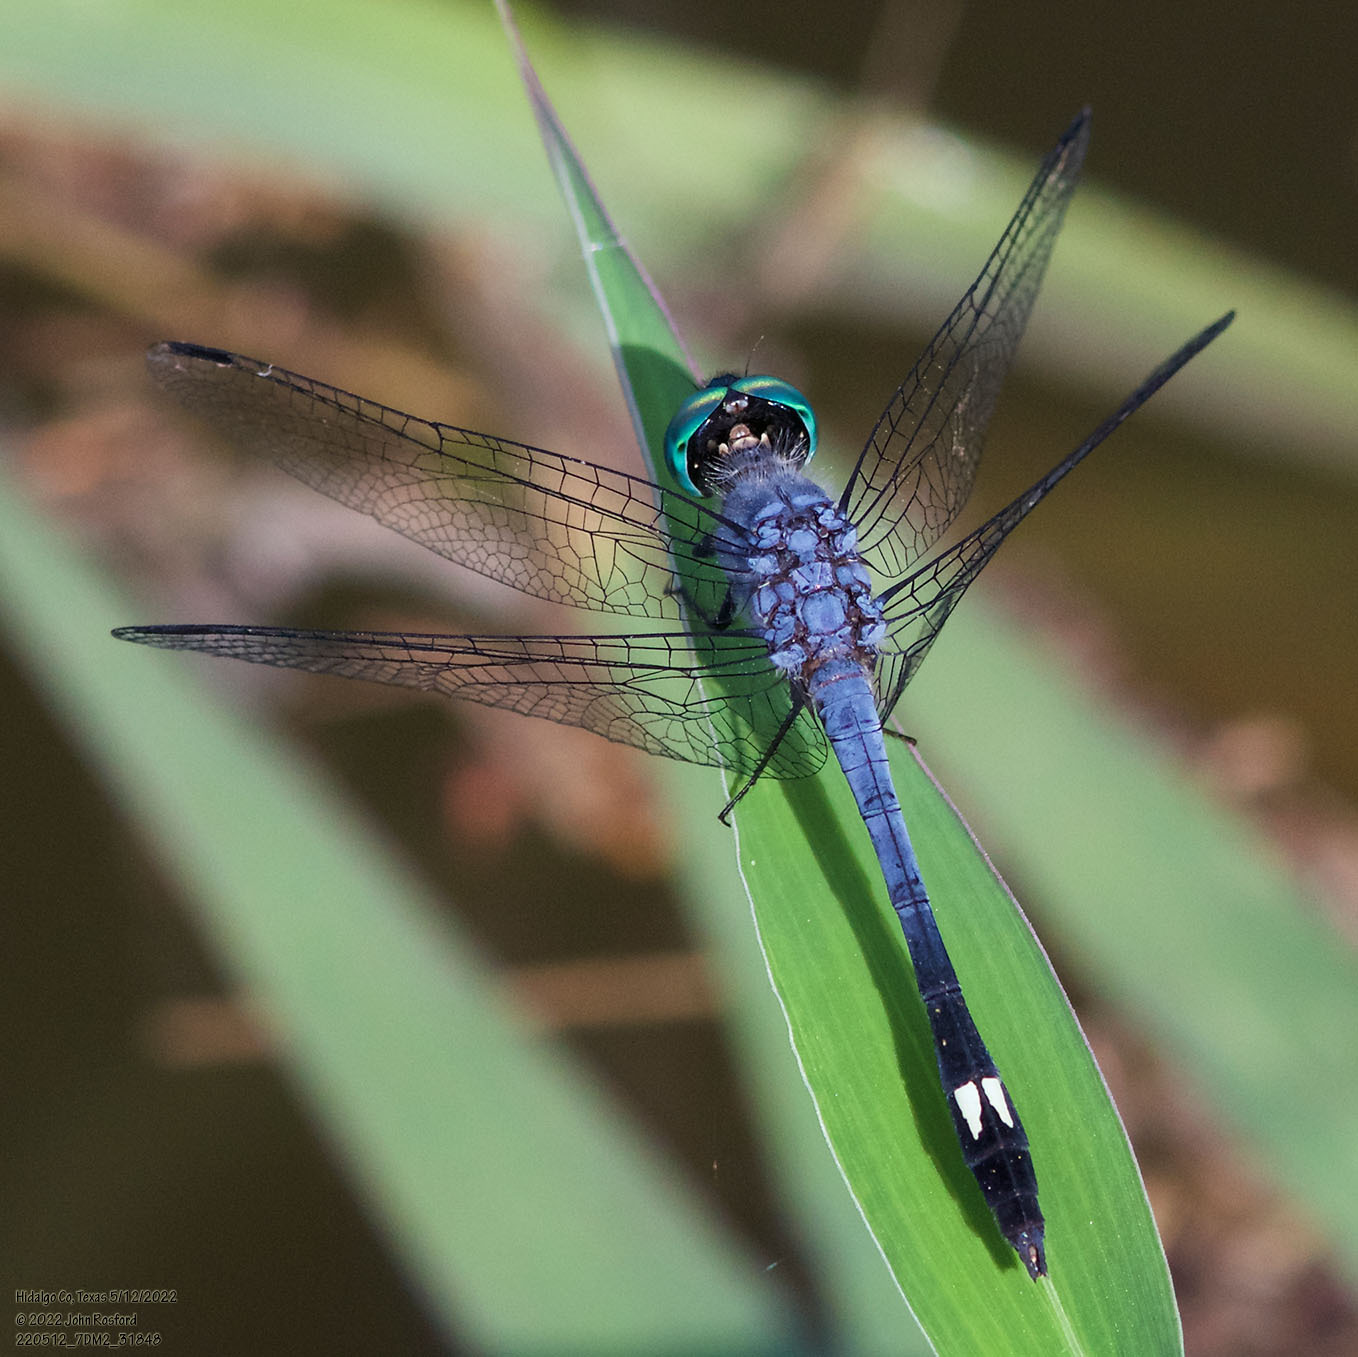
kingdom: Animalia
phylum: Arthropoda
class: Insecta
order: Odonata
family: Libellulidae
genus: Micrathyria
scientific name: Micrathyria aequalis
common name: Spot-tailed dasher
